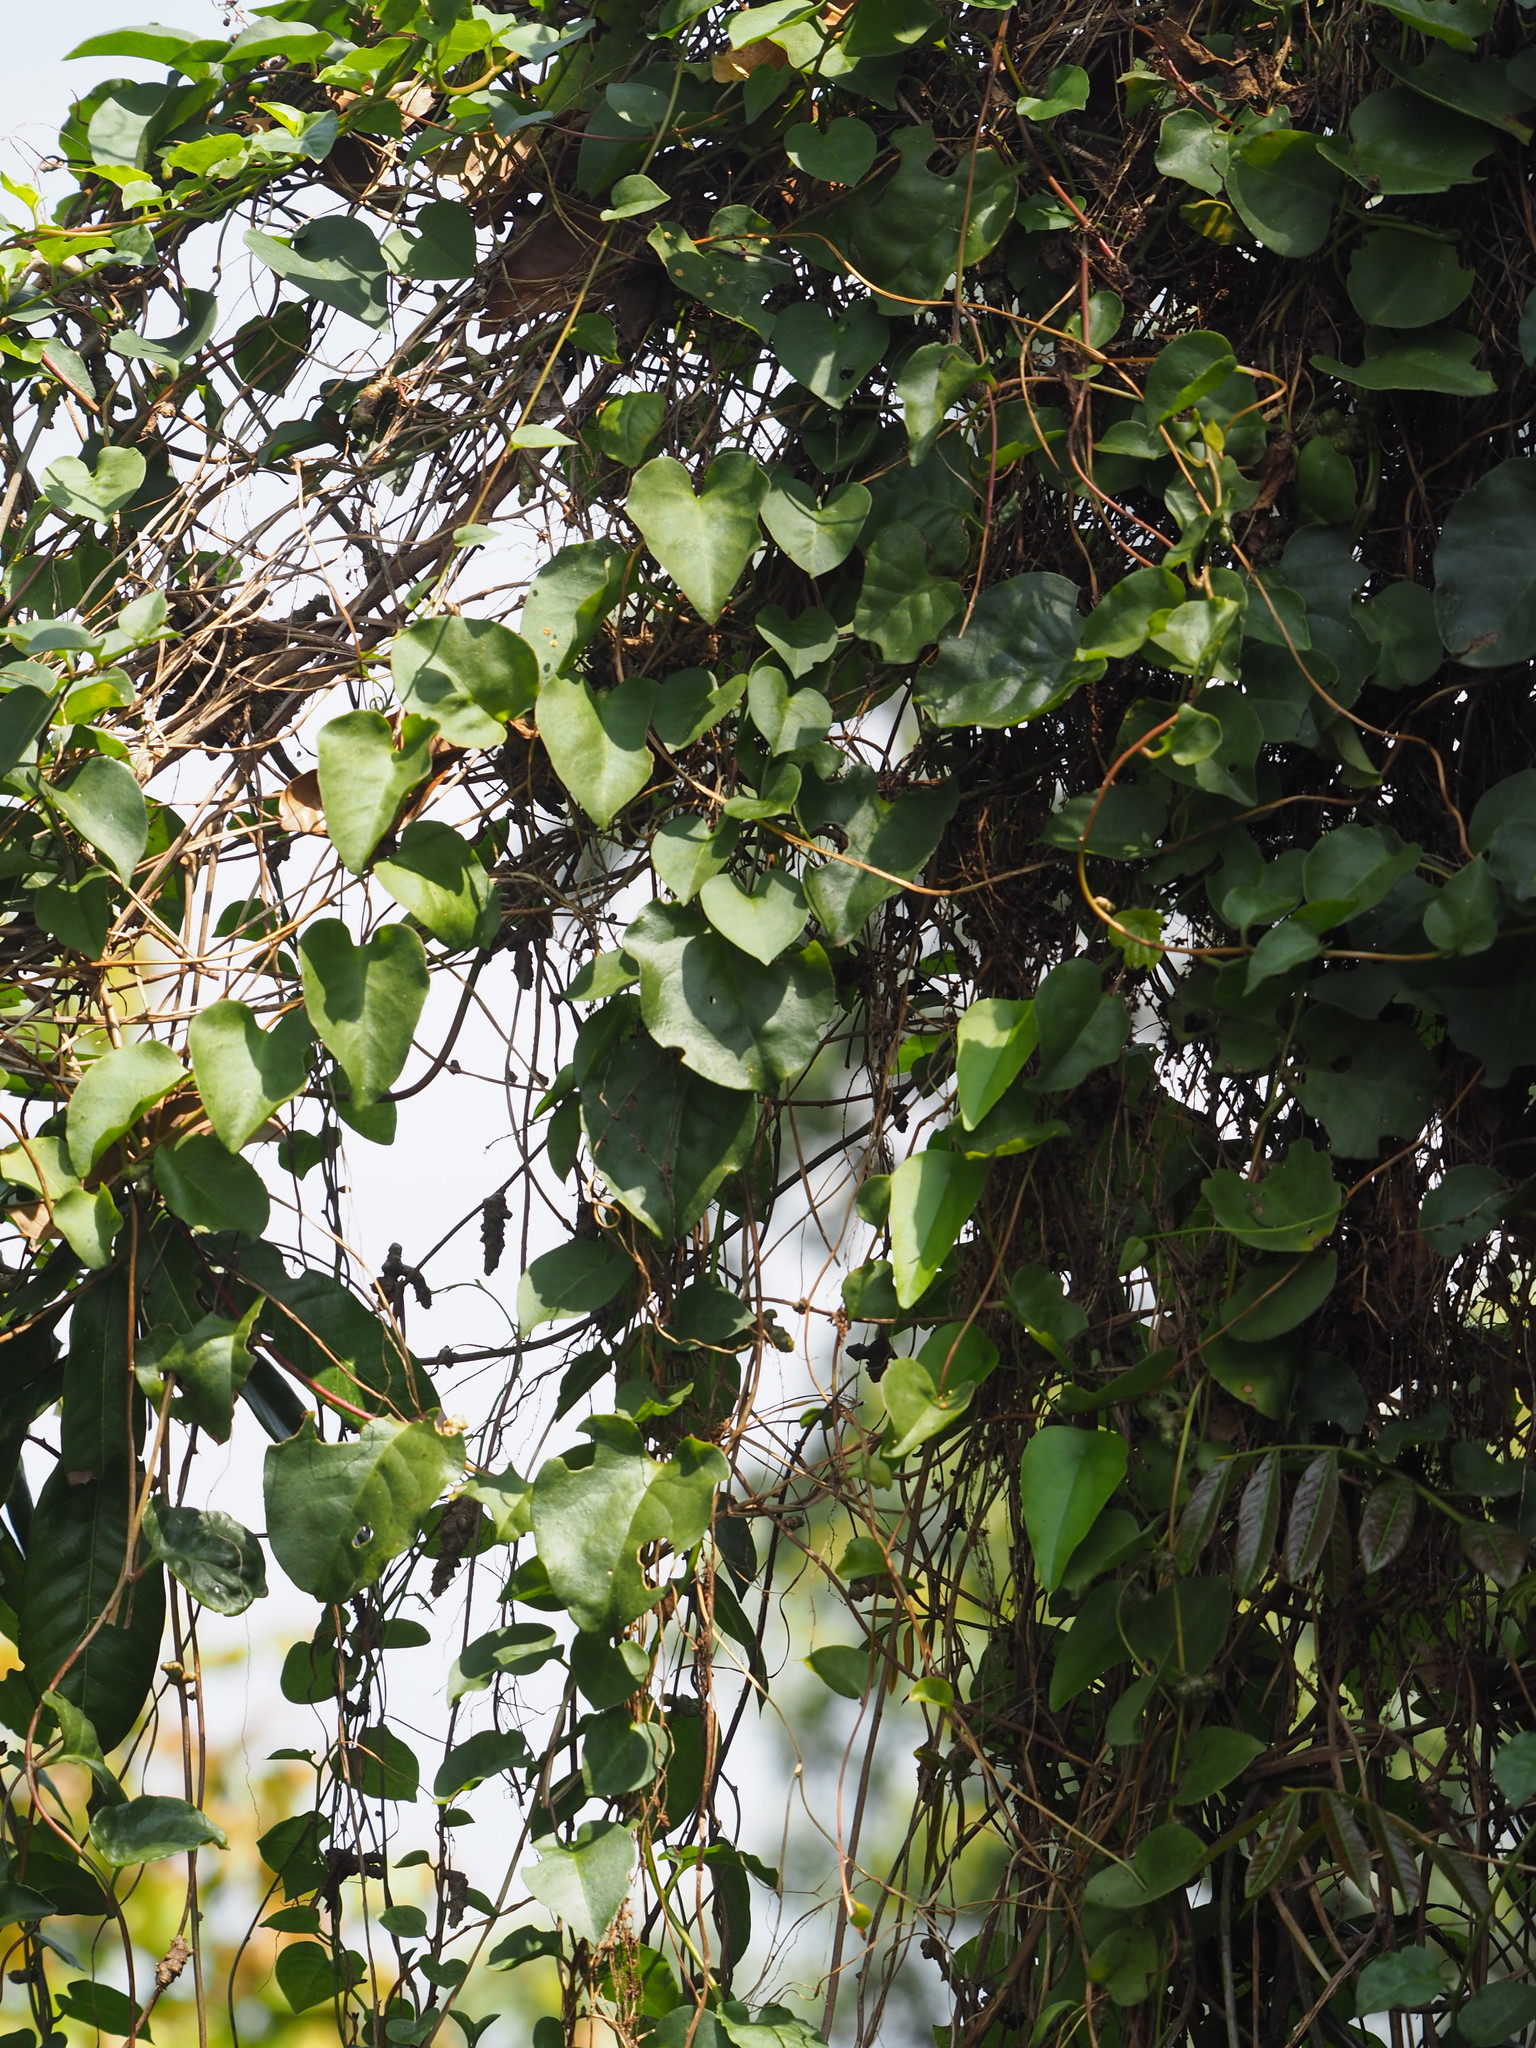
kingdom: Plantae
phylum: Tracheophyta
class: Magnoliopsida
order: Caryophyllales
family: Basellaceae
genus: Anredera
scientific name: Anredera cordifolia
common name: Heartleaf madeiravine
